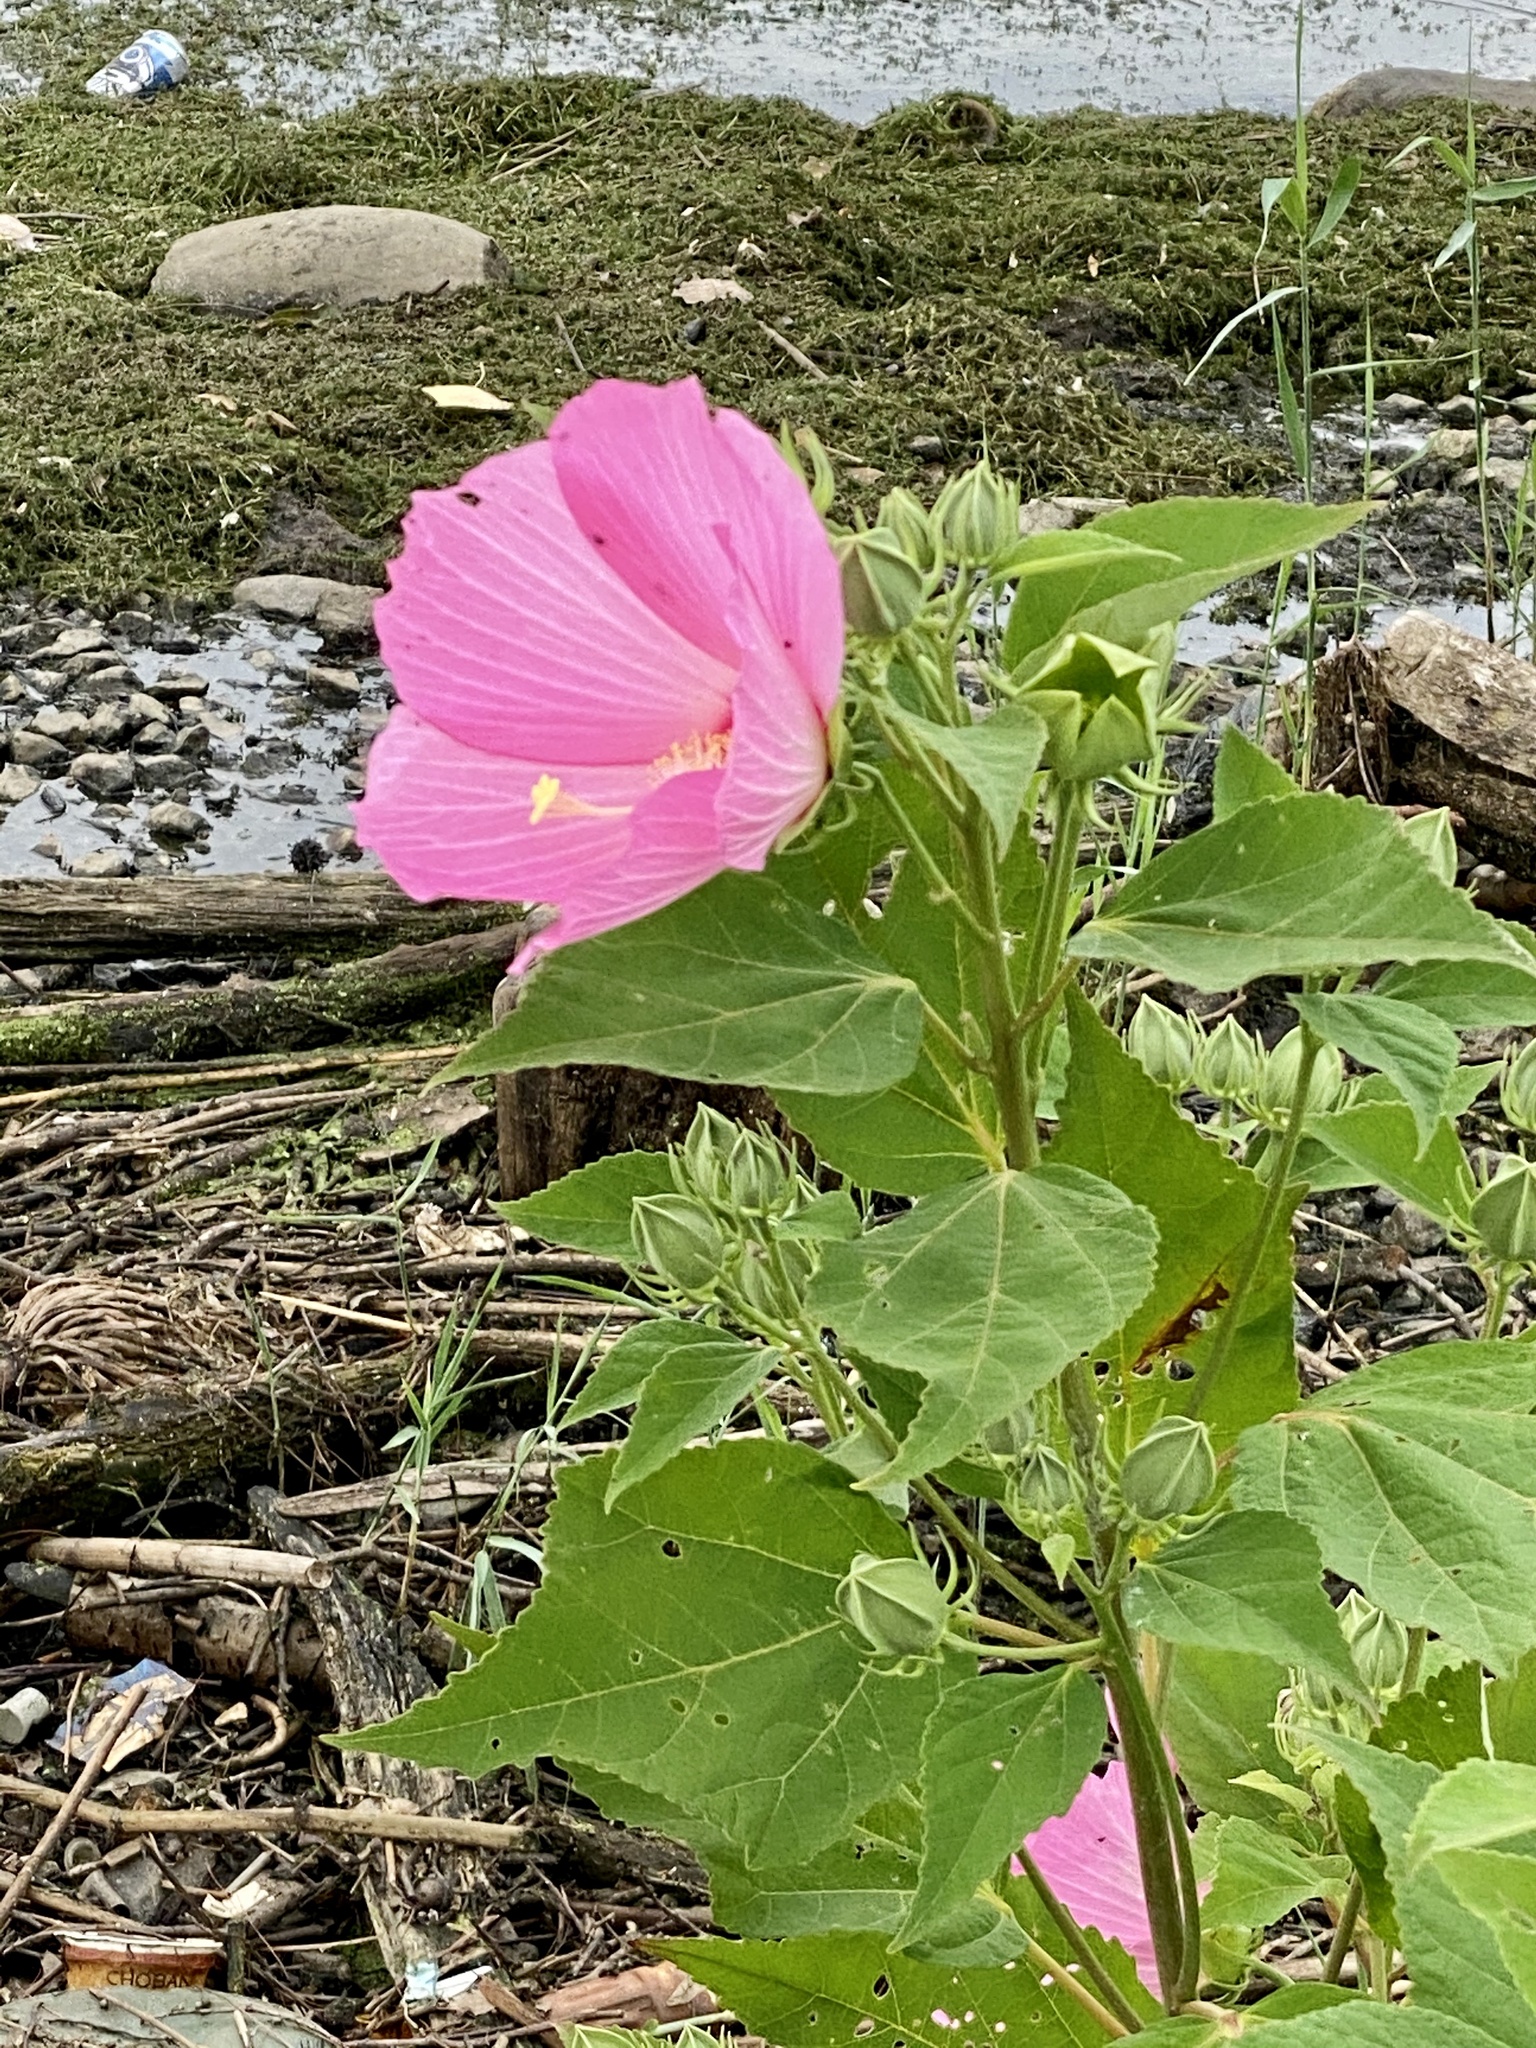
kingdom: Plantae
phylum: Tracheophyta
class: Magnoliopsida
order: Malvales
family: Malvaceae
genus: Hibiscus
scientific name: Hibiscus moscheutos
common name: Common rose-mallow
